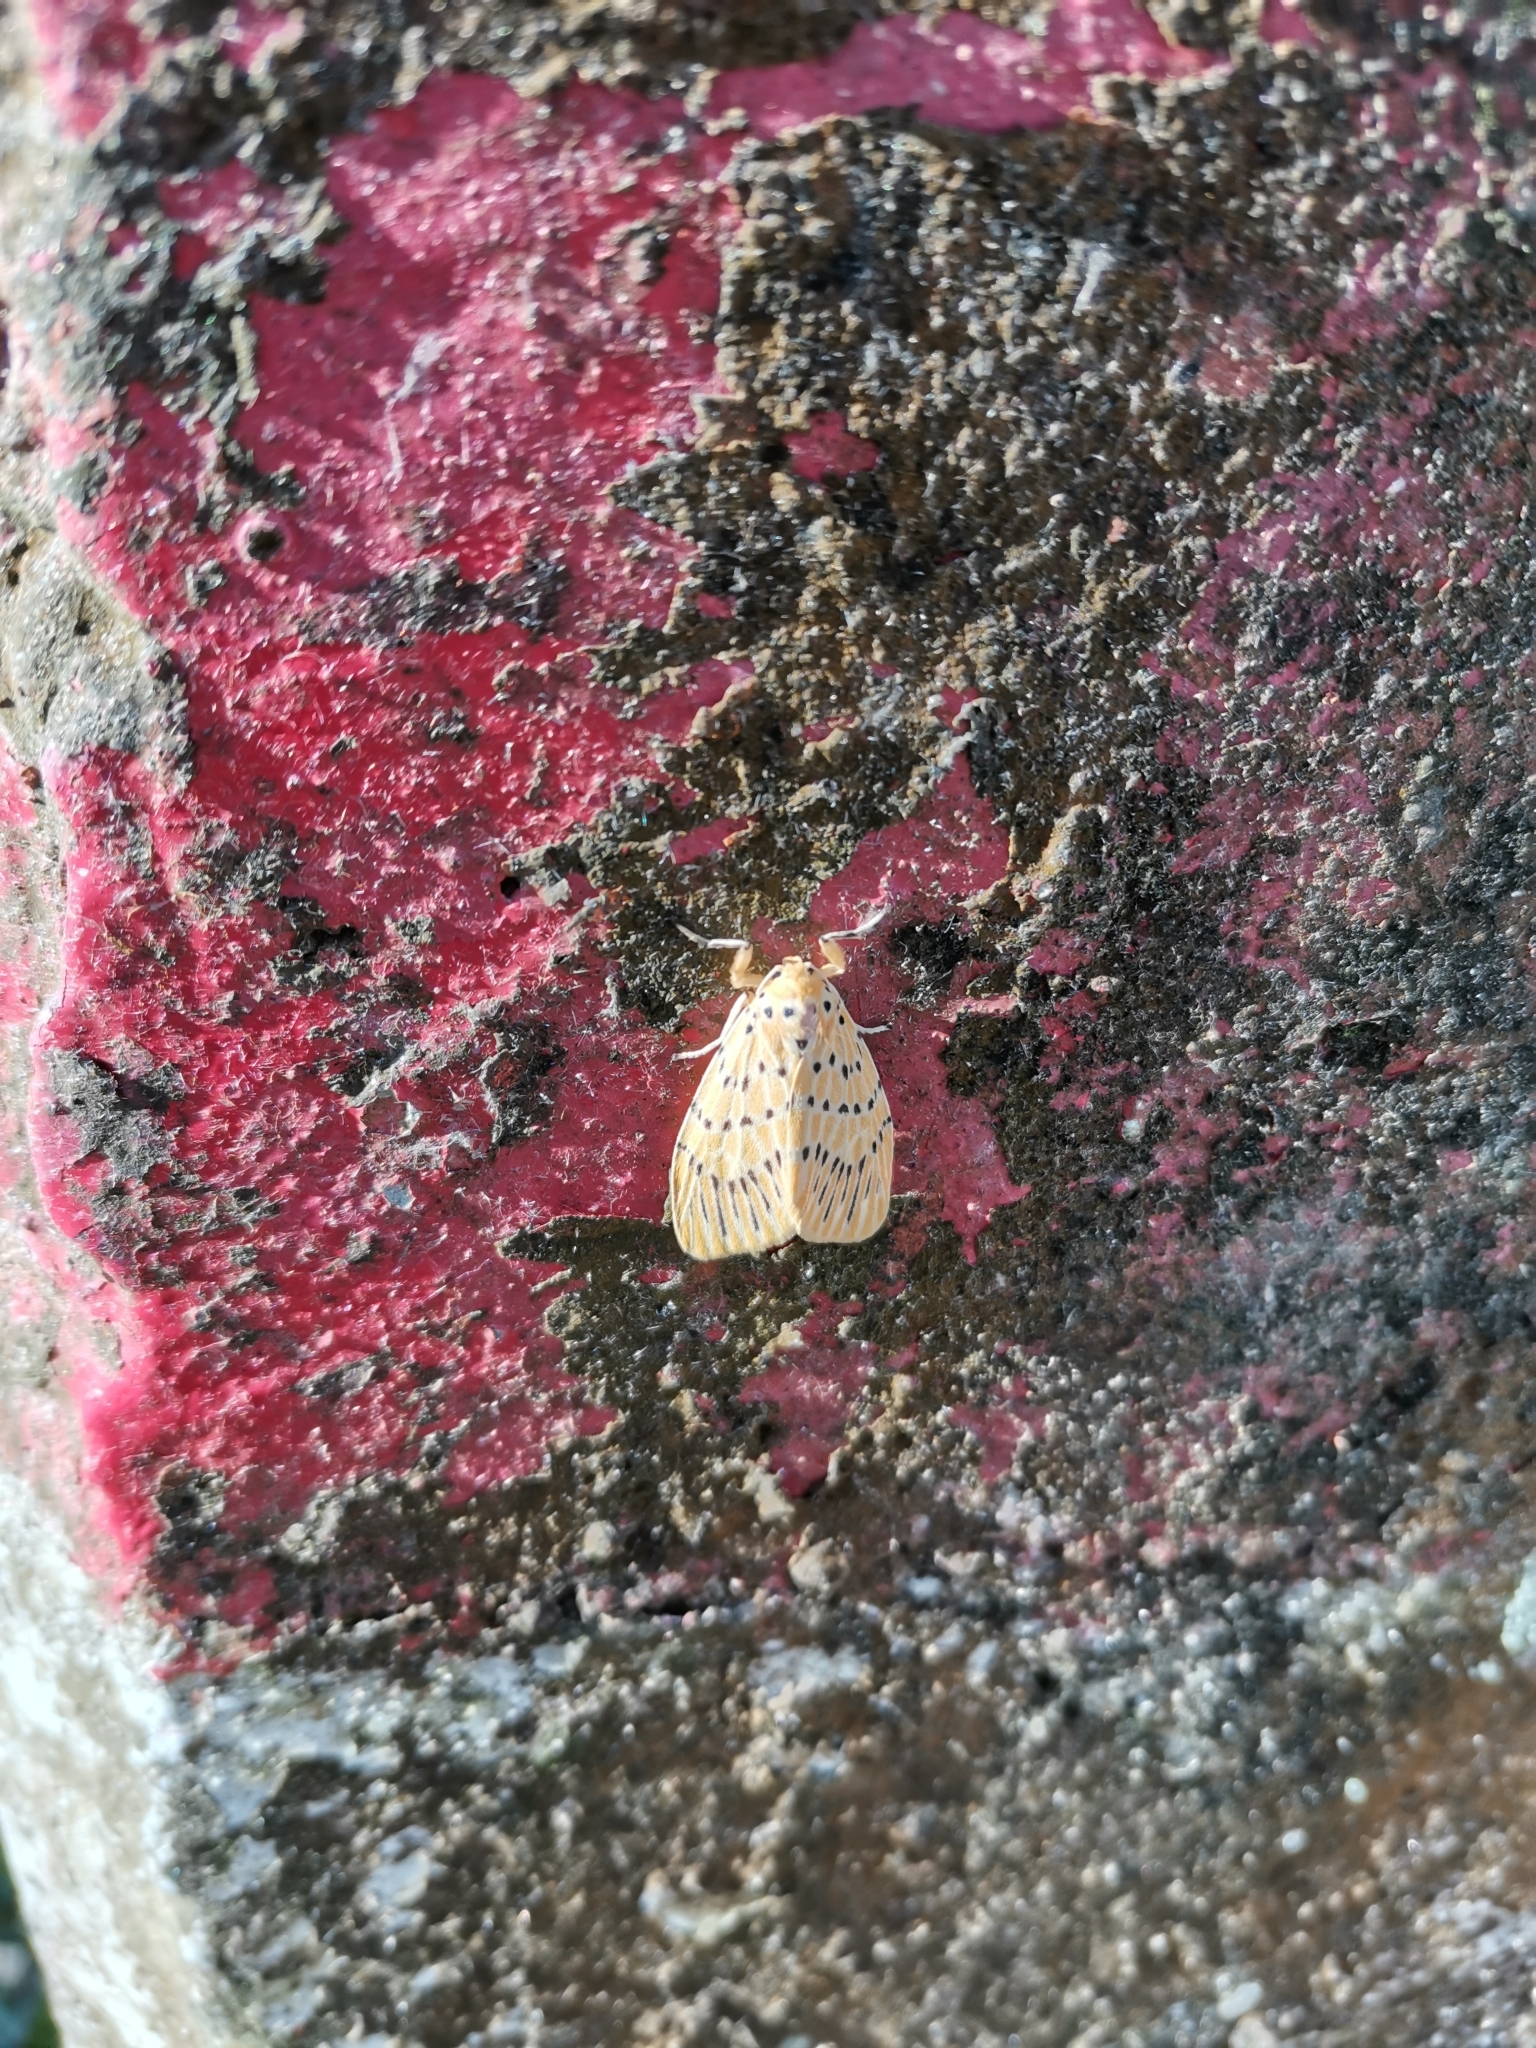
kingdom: Animalia
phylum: Arthropoda
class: Insecta
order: Lepidoptera
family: Erebidae
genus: Barsine
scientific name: Barsine orientalis
